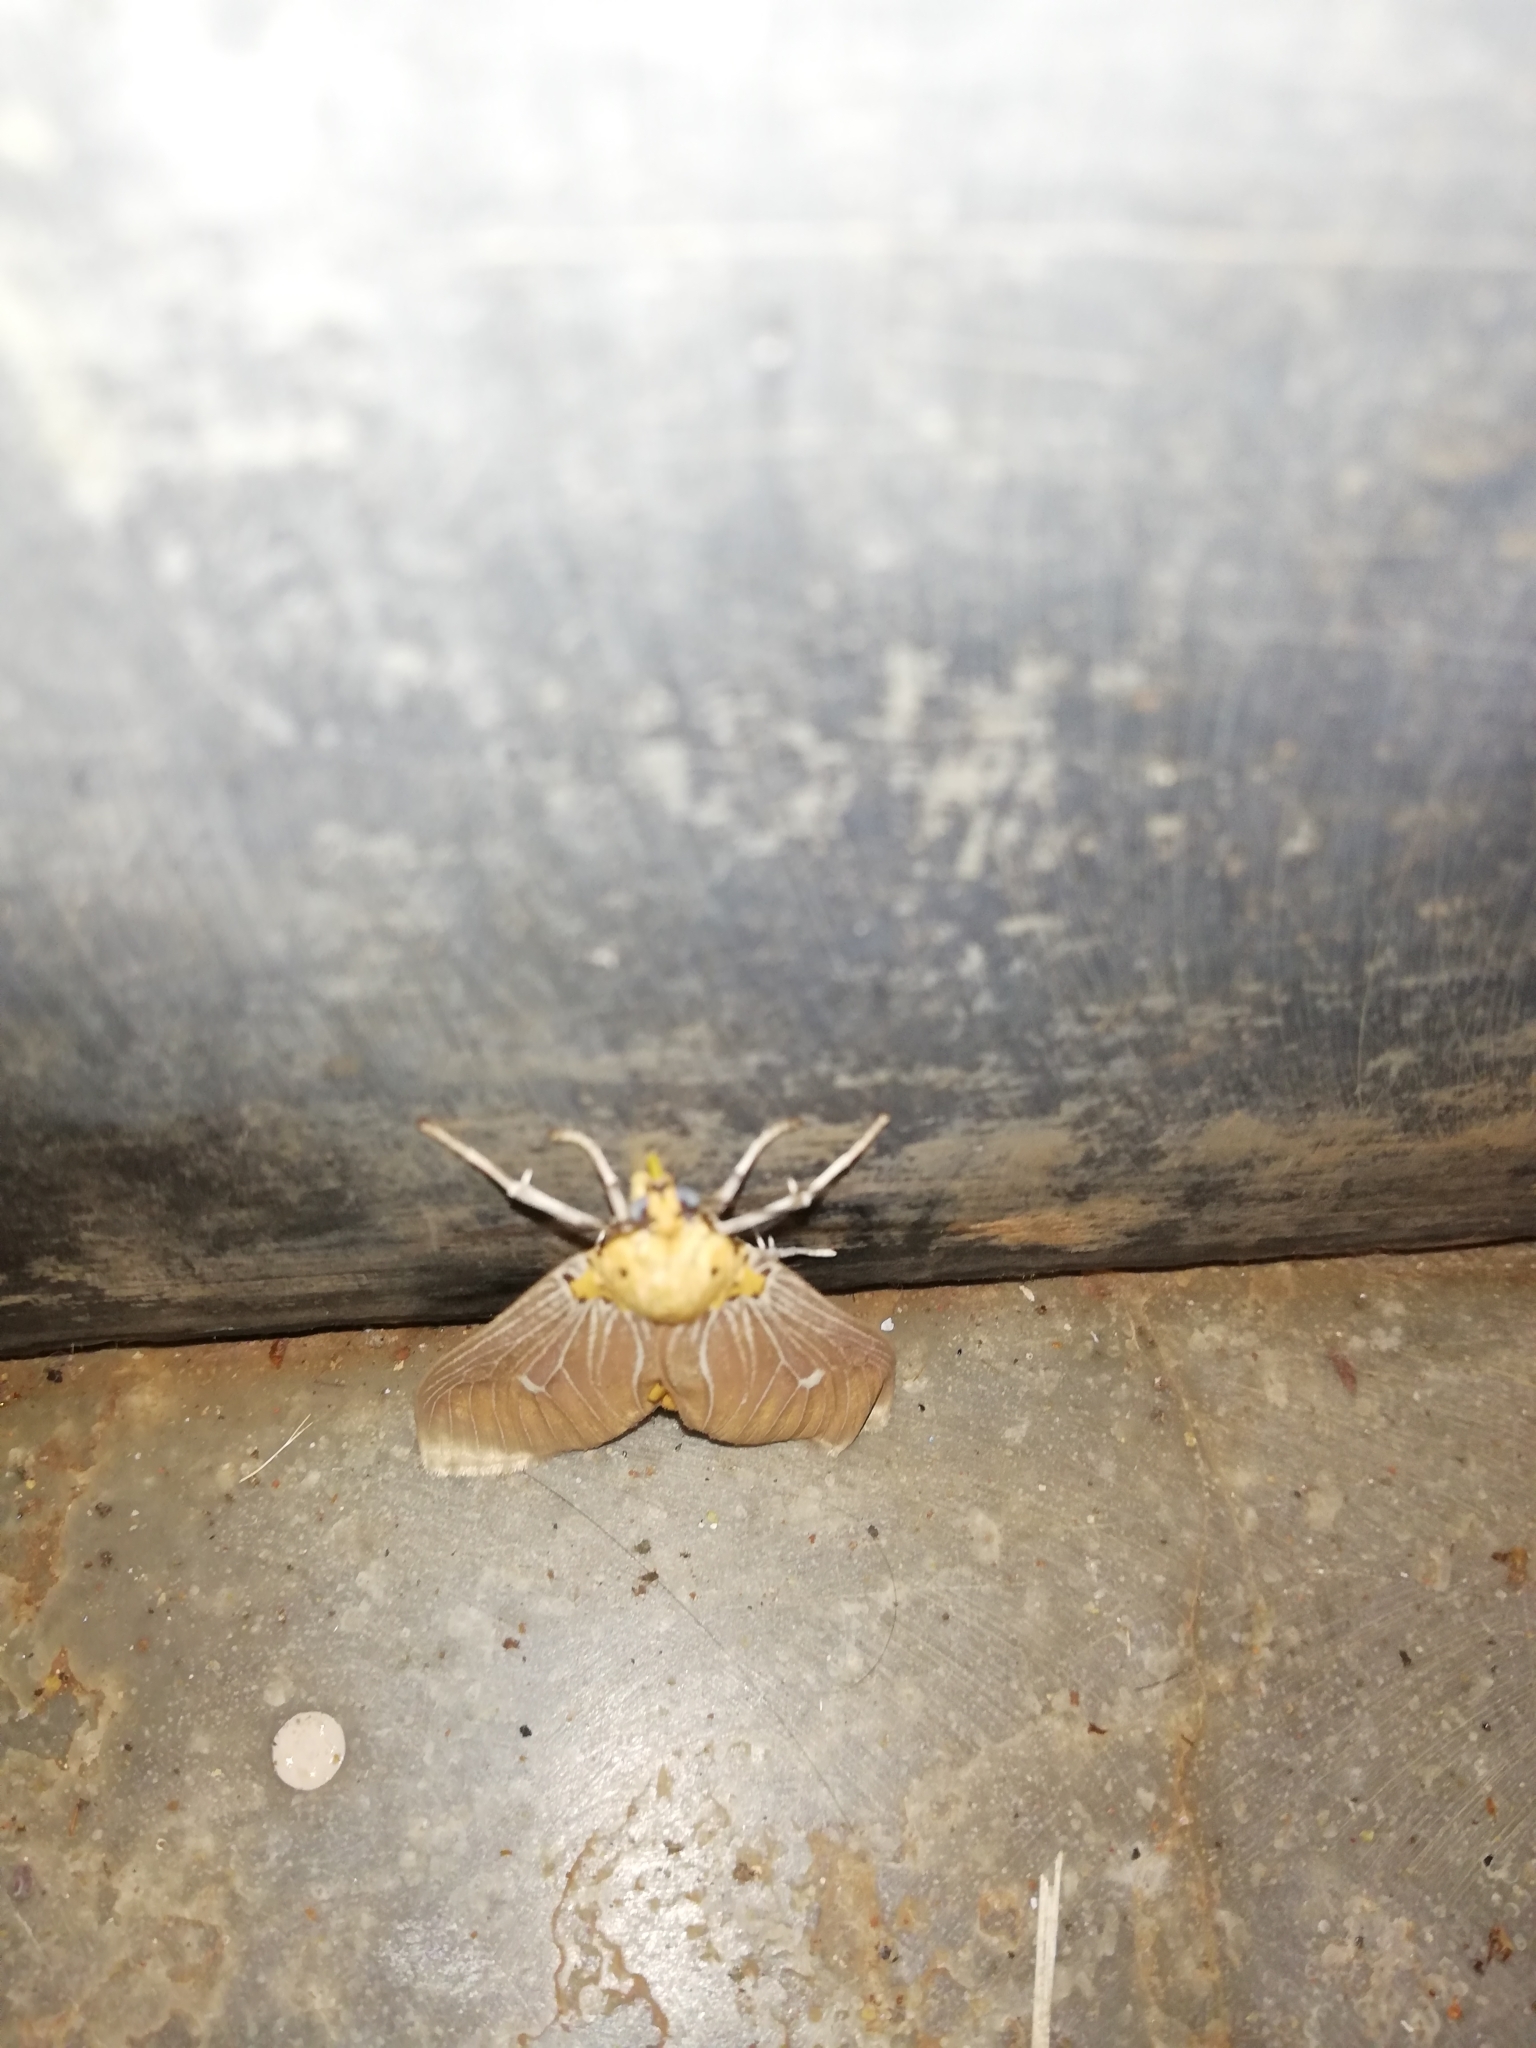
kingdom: Animalia
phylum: Arthropoda
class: Insecta
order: Lepidoptera
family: Erebidae
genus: Asota
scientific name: Asota caricae
